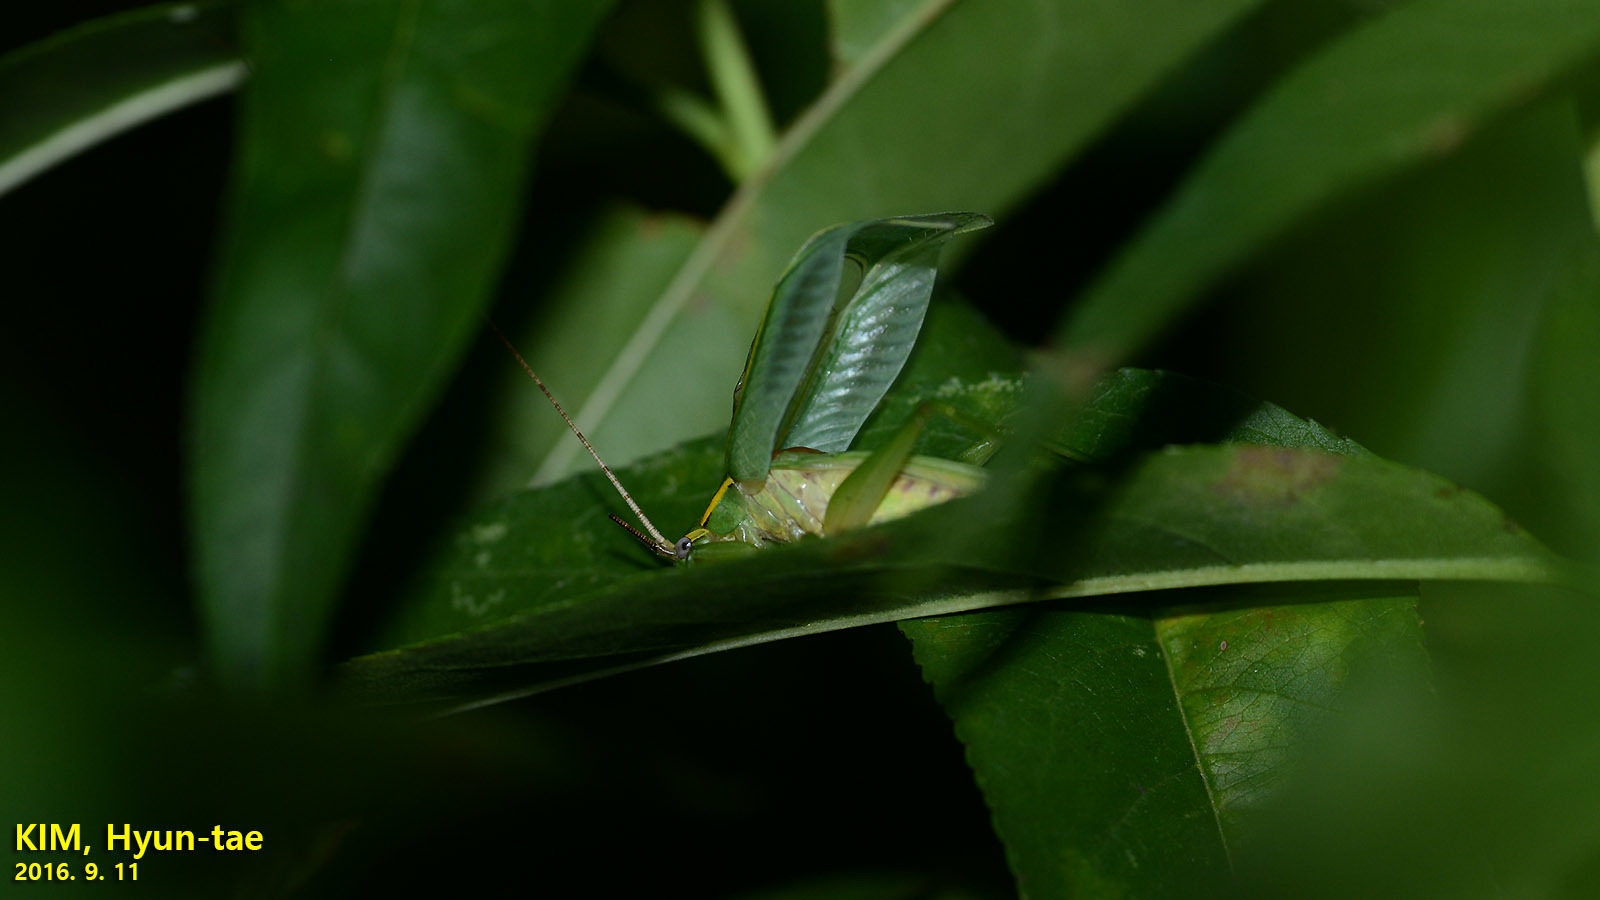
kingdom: Animalia
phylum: Arthropoda
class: Insecta
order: Orthoptera
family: Gryllidae
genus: Truljalia
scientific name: Truljalia hibinonis
